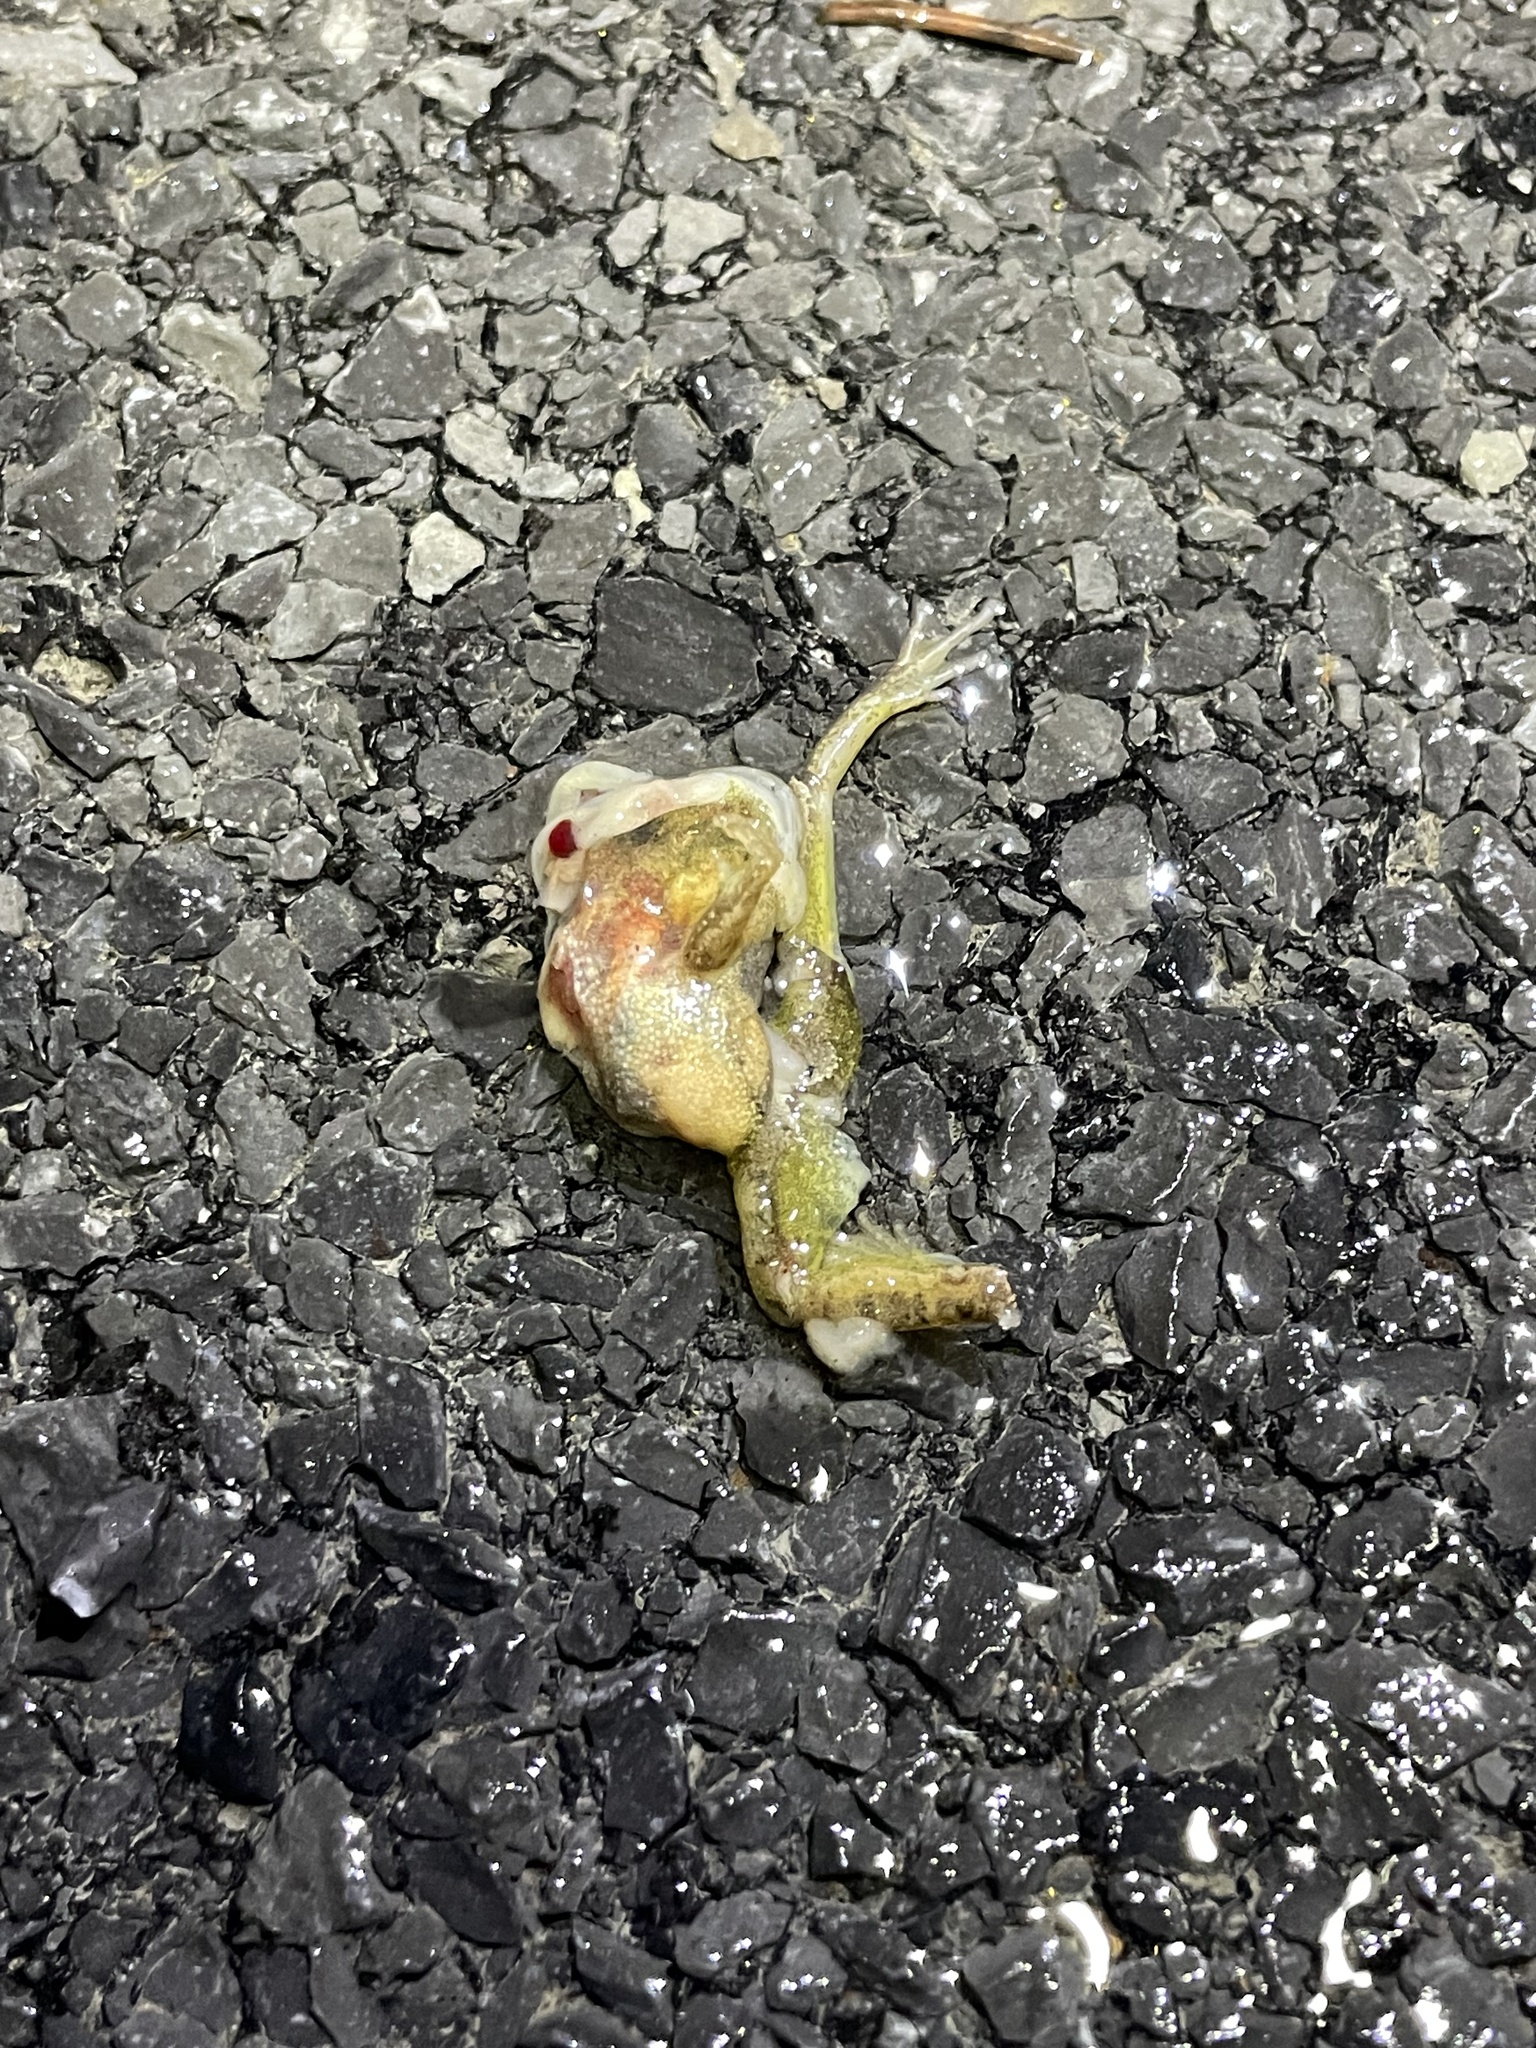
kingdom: Animalia
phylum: Chordata
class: Amphibia
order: Anura
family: Hylidae
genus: Pseudacris
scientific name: Pseudacris crucifer
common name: Spring peeper
